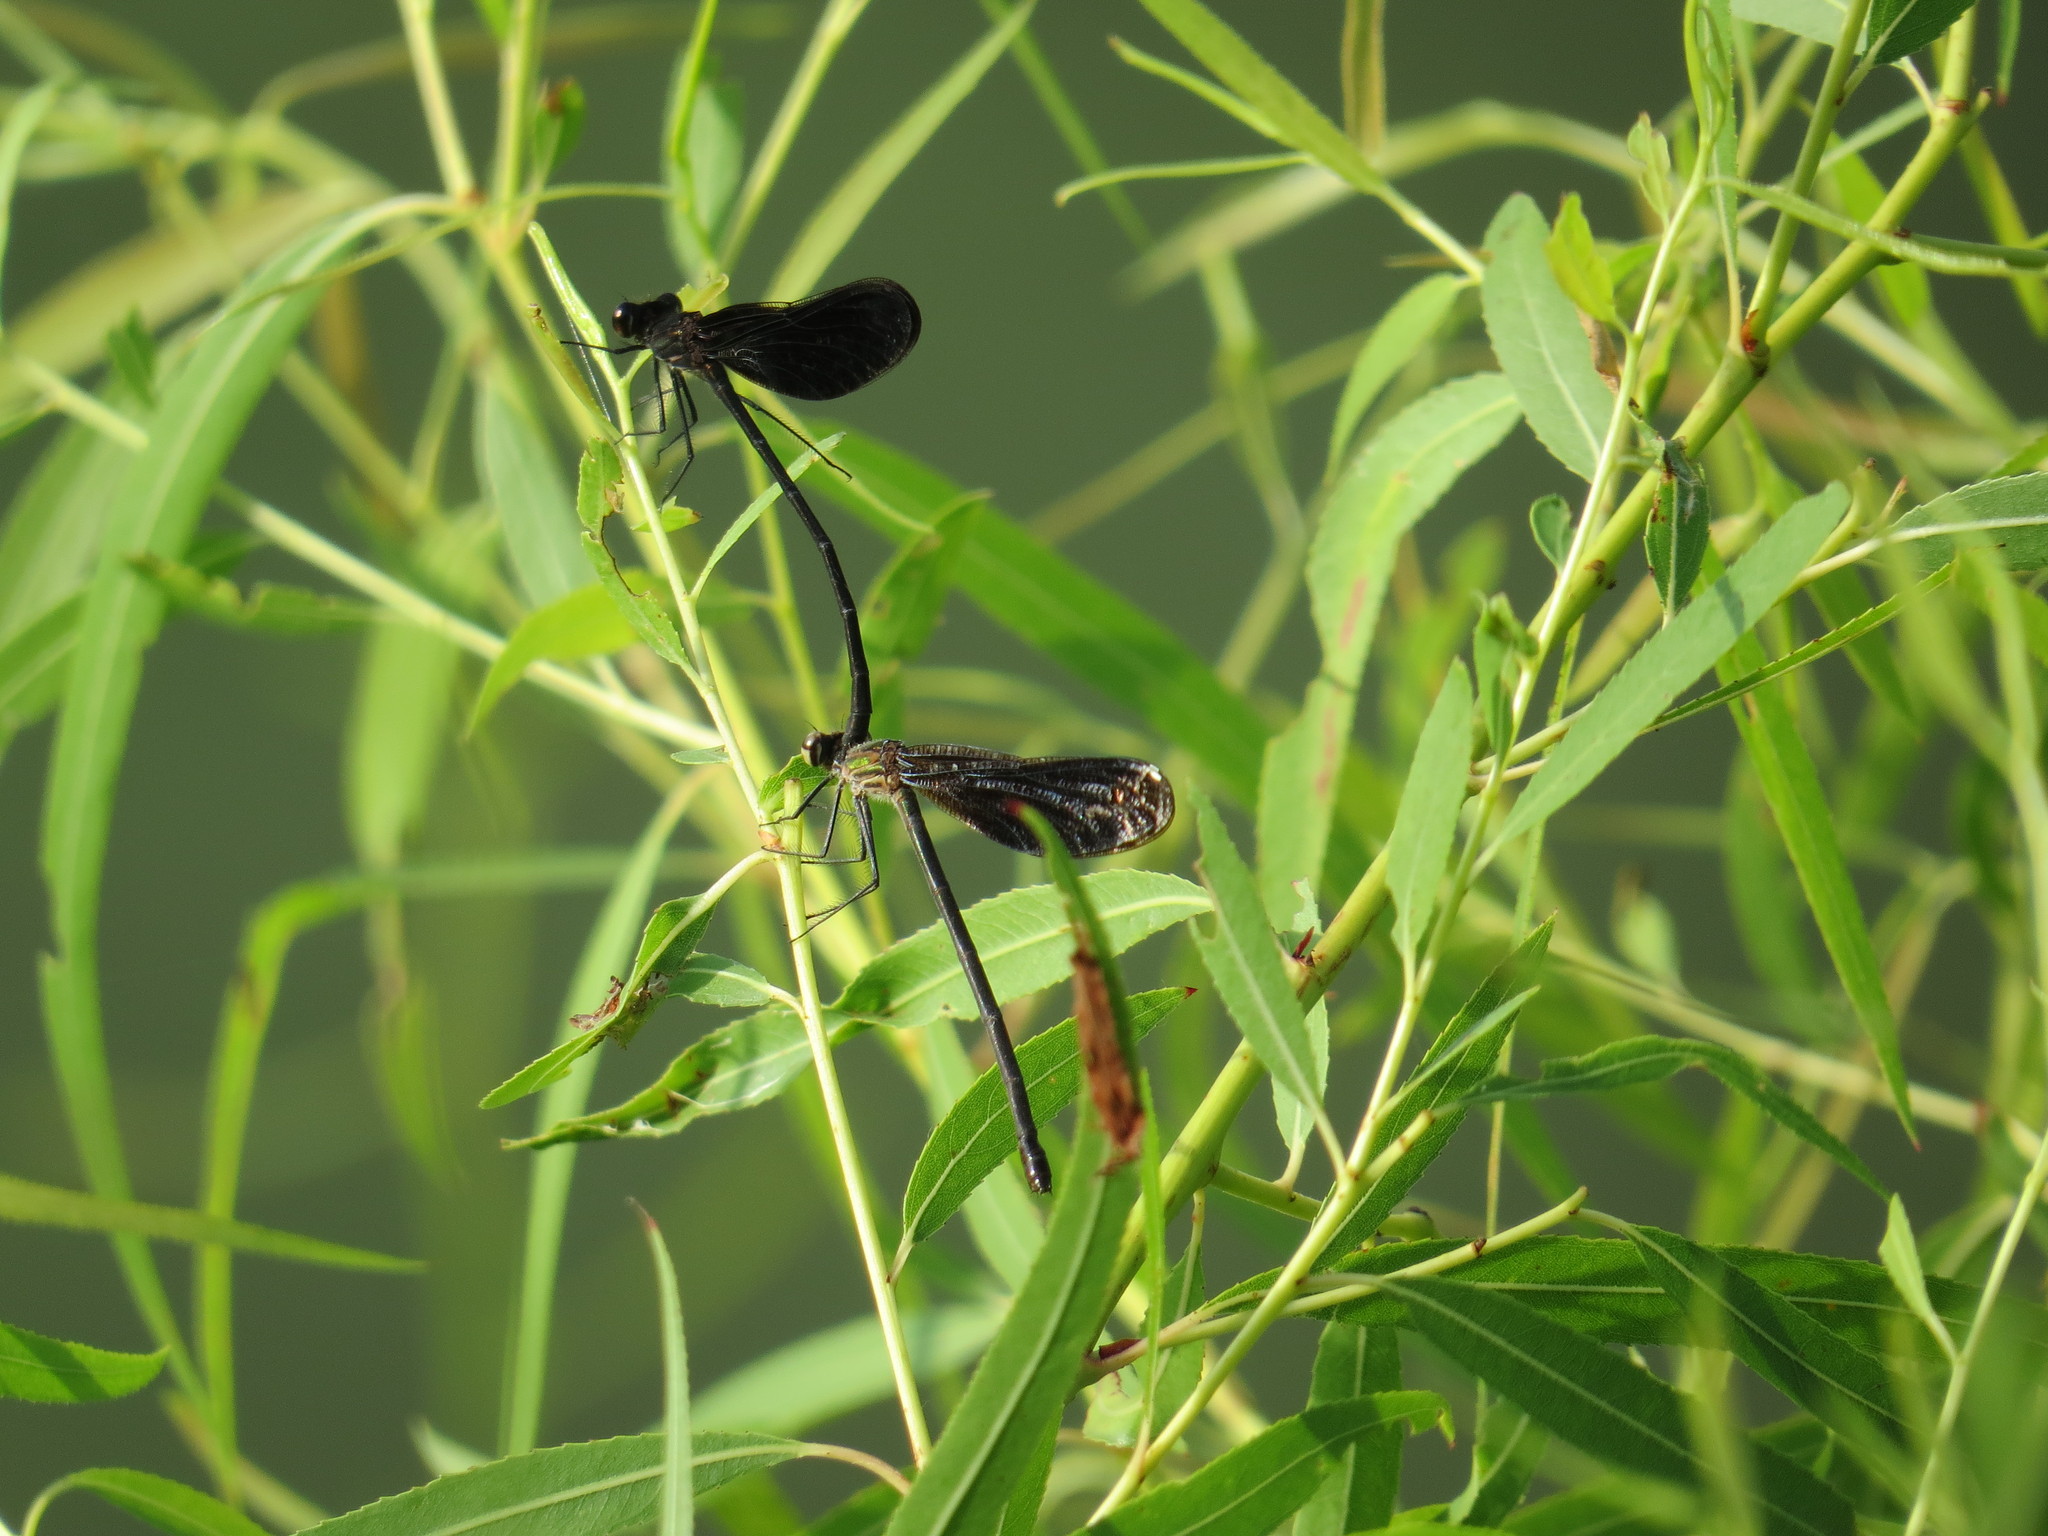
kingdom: Animalia
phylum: Arthropoda
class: Insecta
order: Odonata
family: Calopterygidae
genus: Hetaerina
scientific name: Hetaerina titia
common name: Smoky rubyspot
